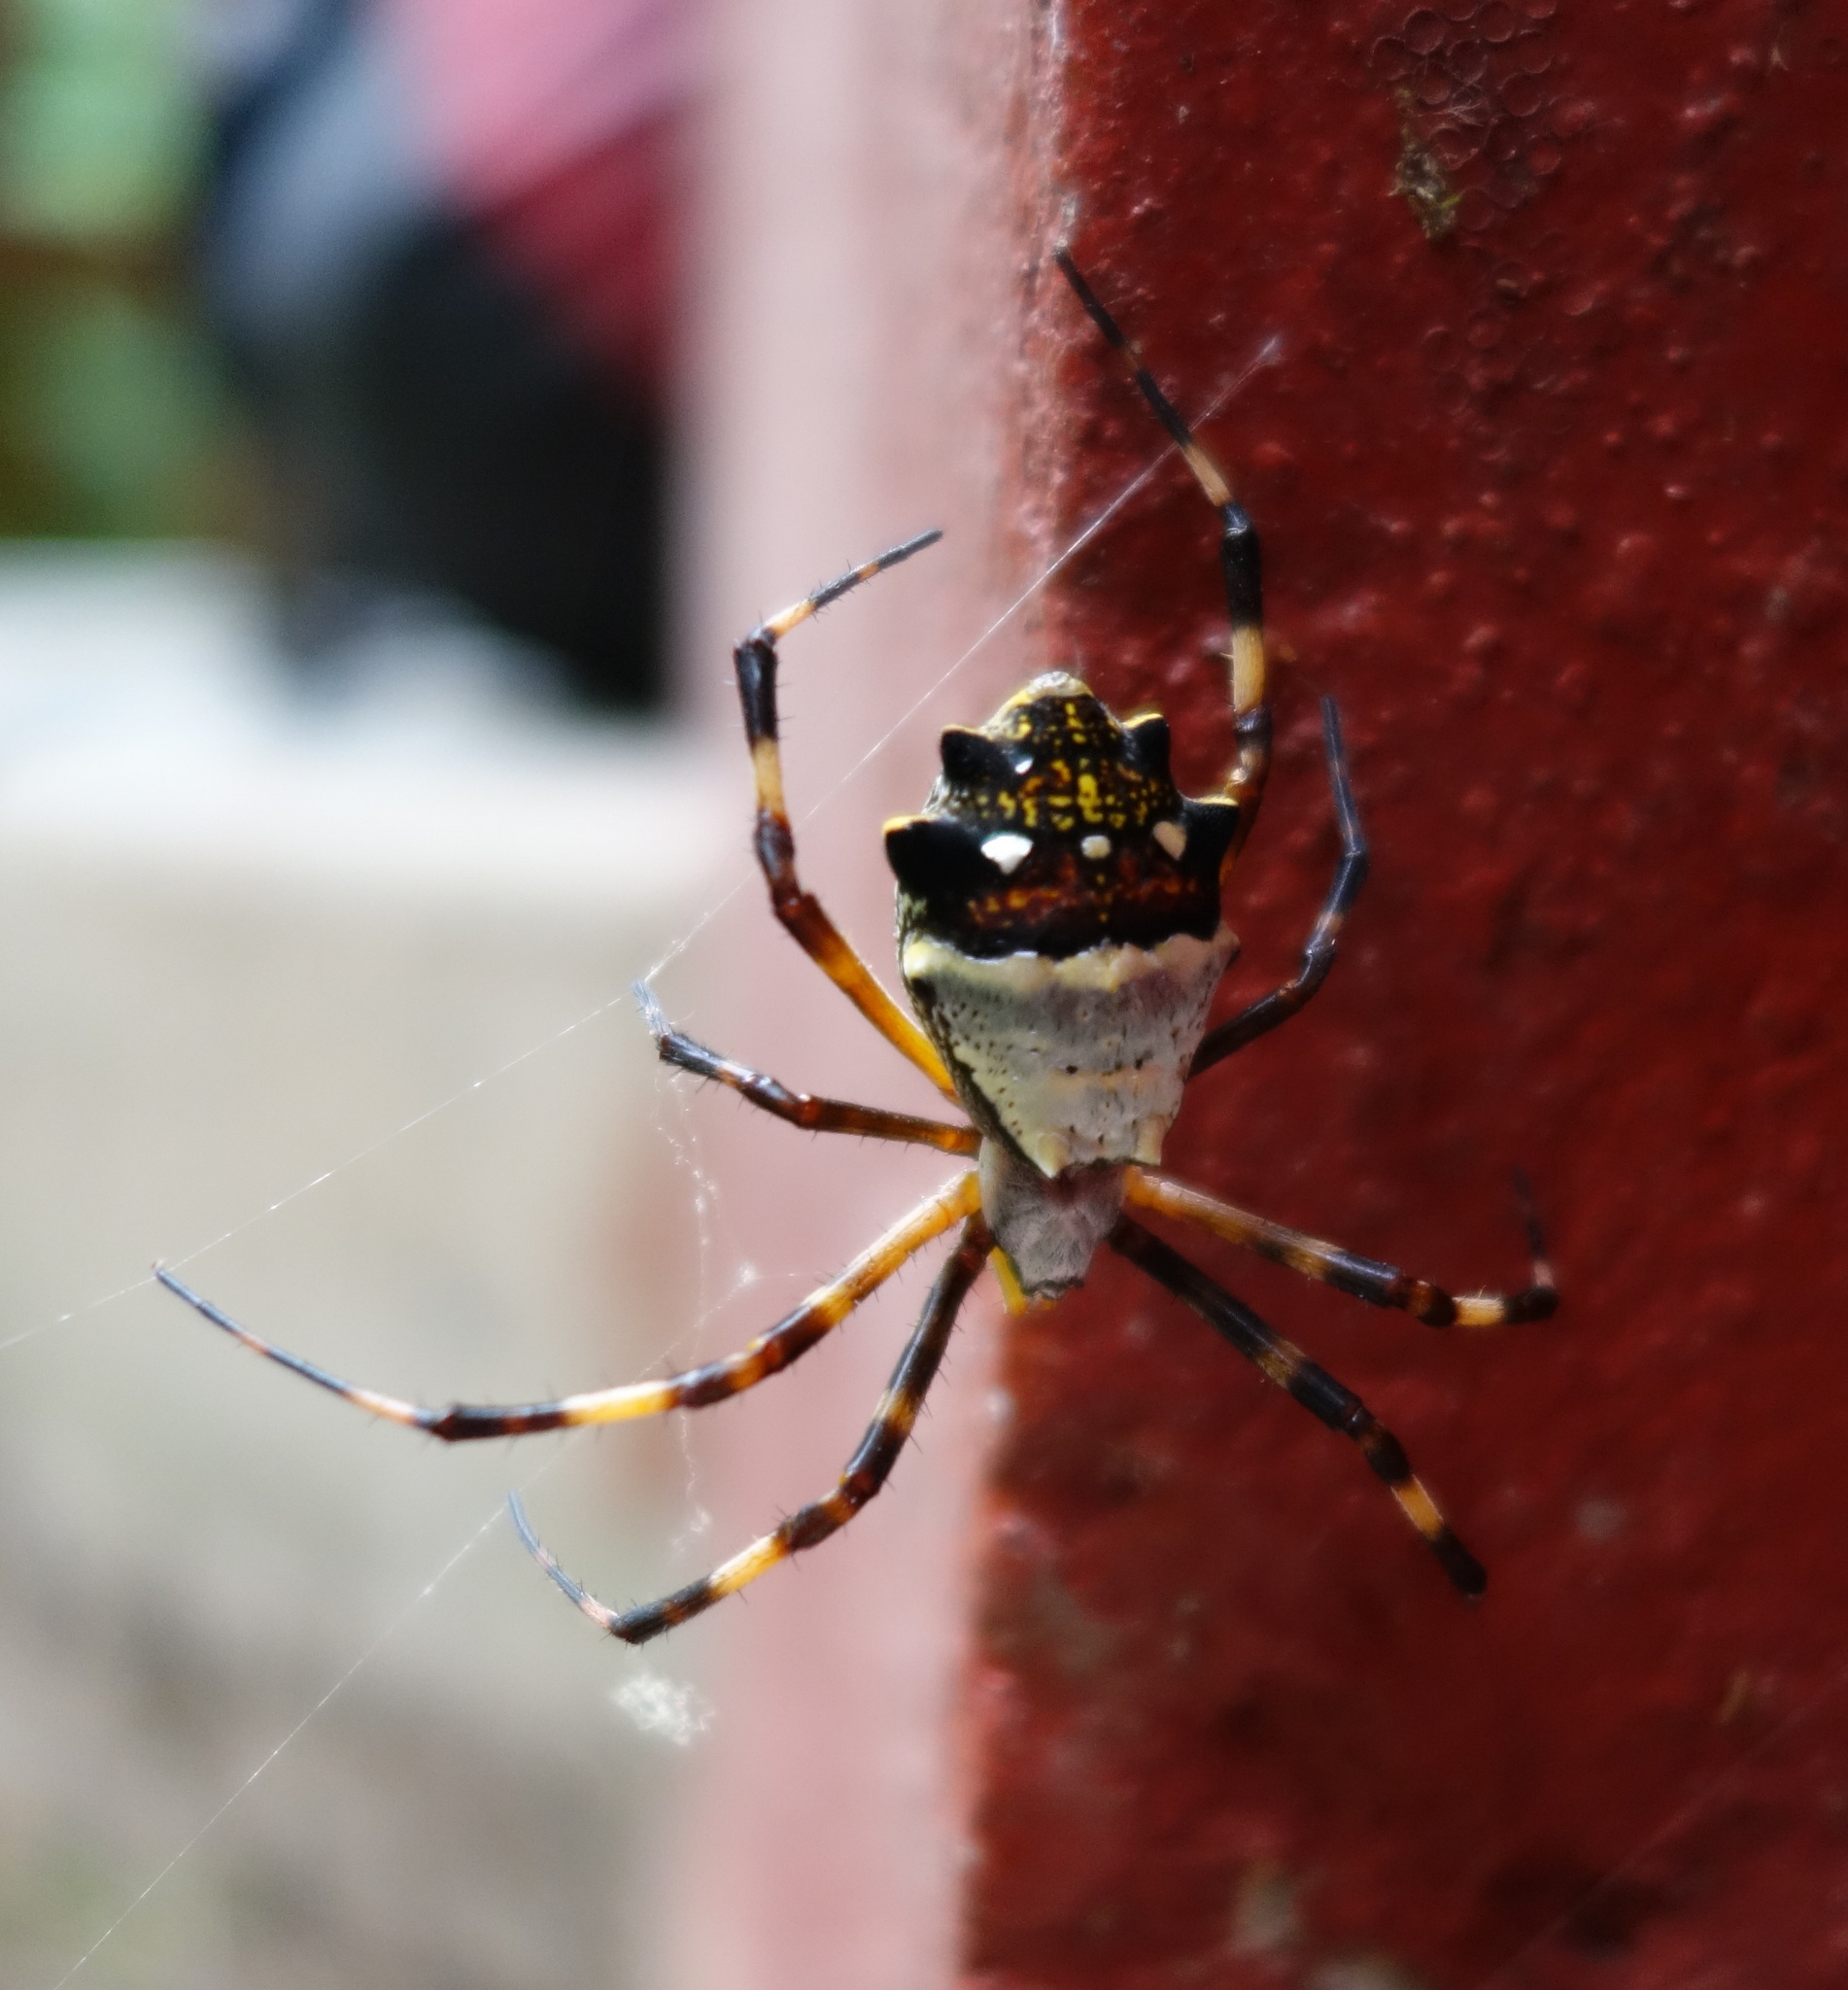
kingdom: Animalia
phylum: Arthropoda
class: Arachnida
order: Araneae
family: Araneidae
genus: Argiope
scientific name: Argiope argentata
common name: Orb weavers
